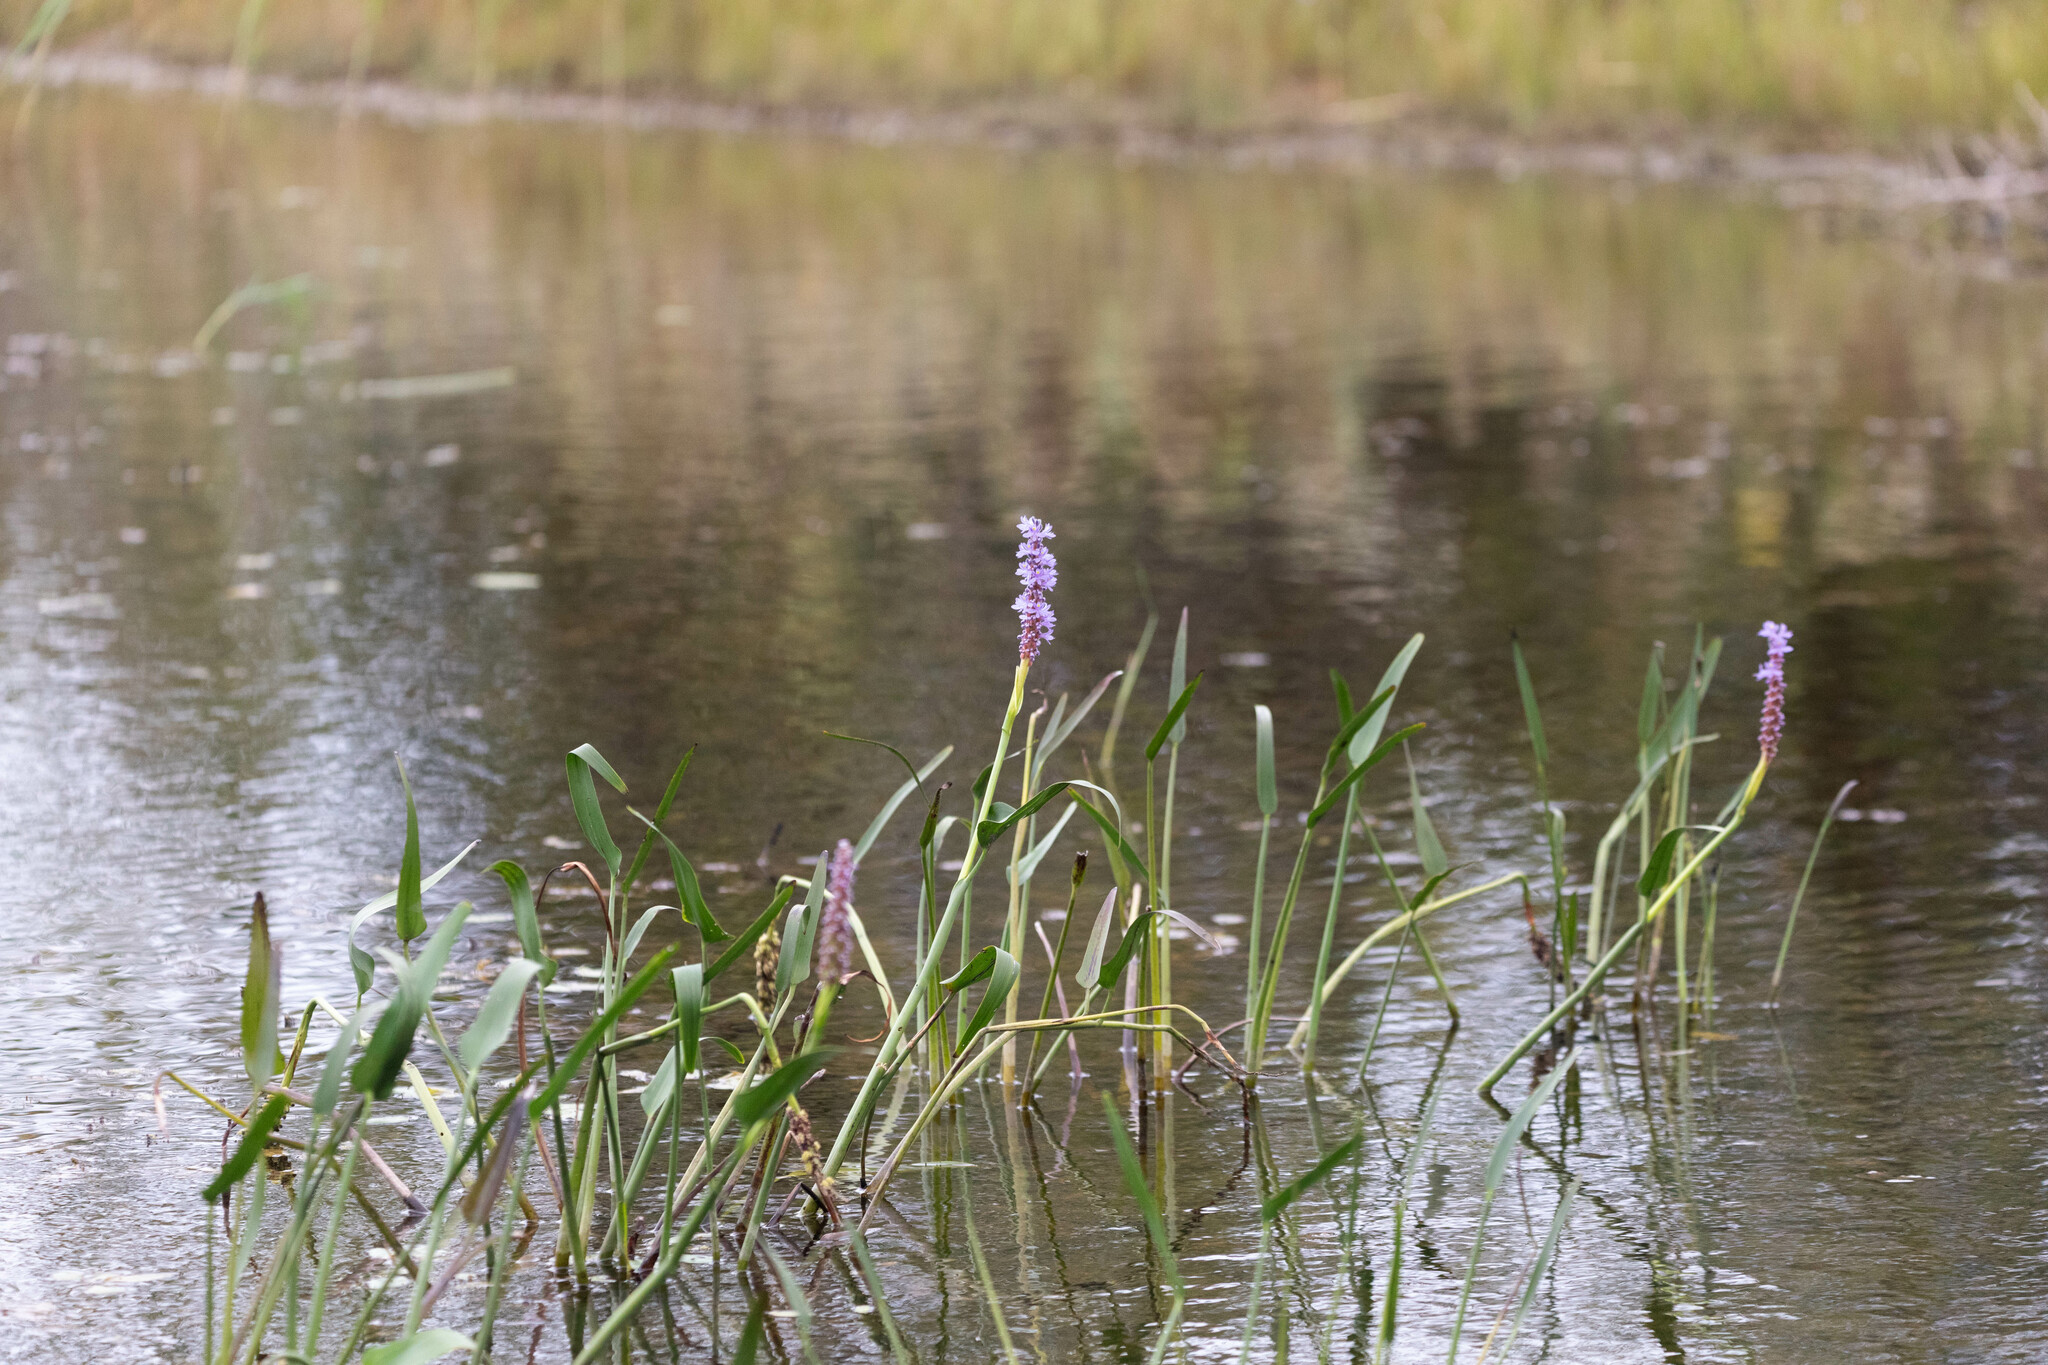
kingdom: Plantae
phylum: Tracheophyta
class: Liliopsida
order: Commelinales
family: Pontederiaceae
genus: Pontederia
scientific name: Pontederia cordata
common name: Pickerelweed
